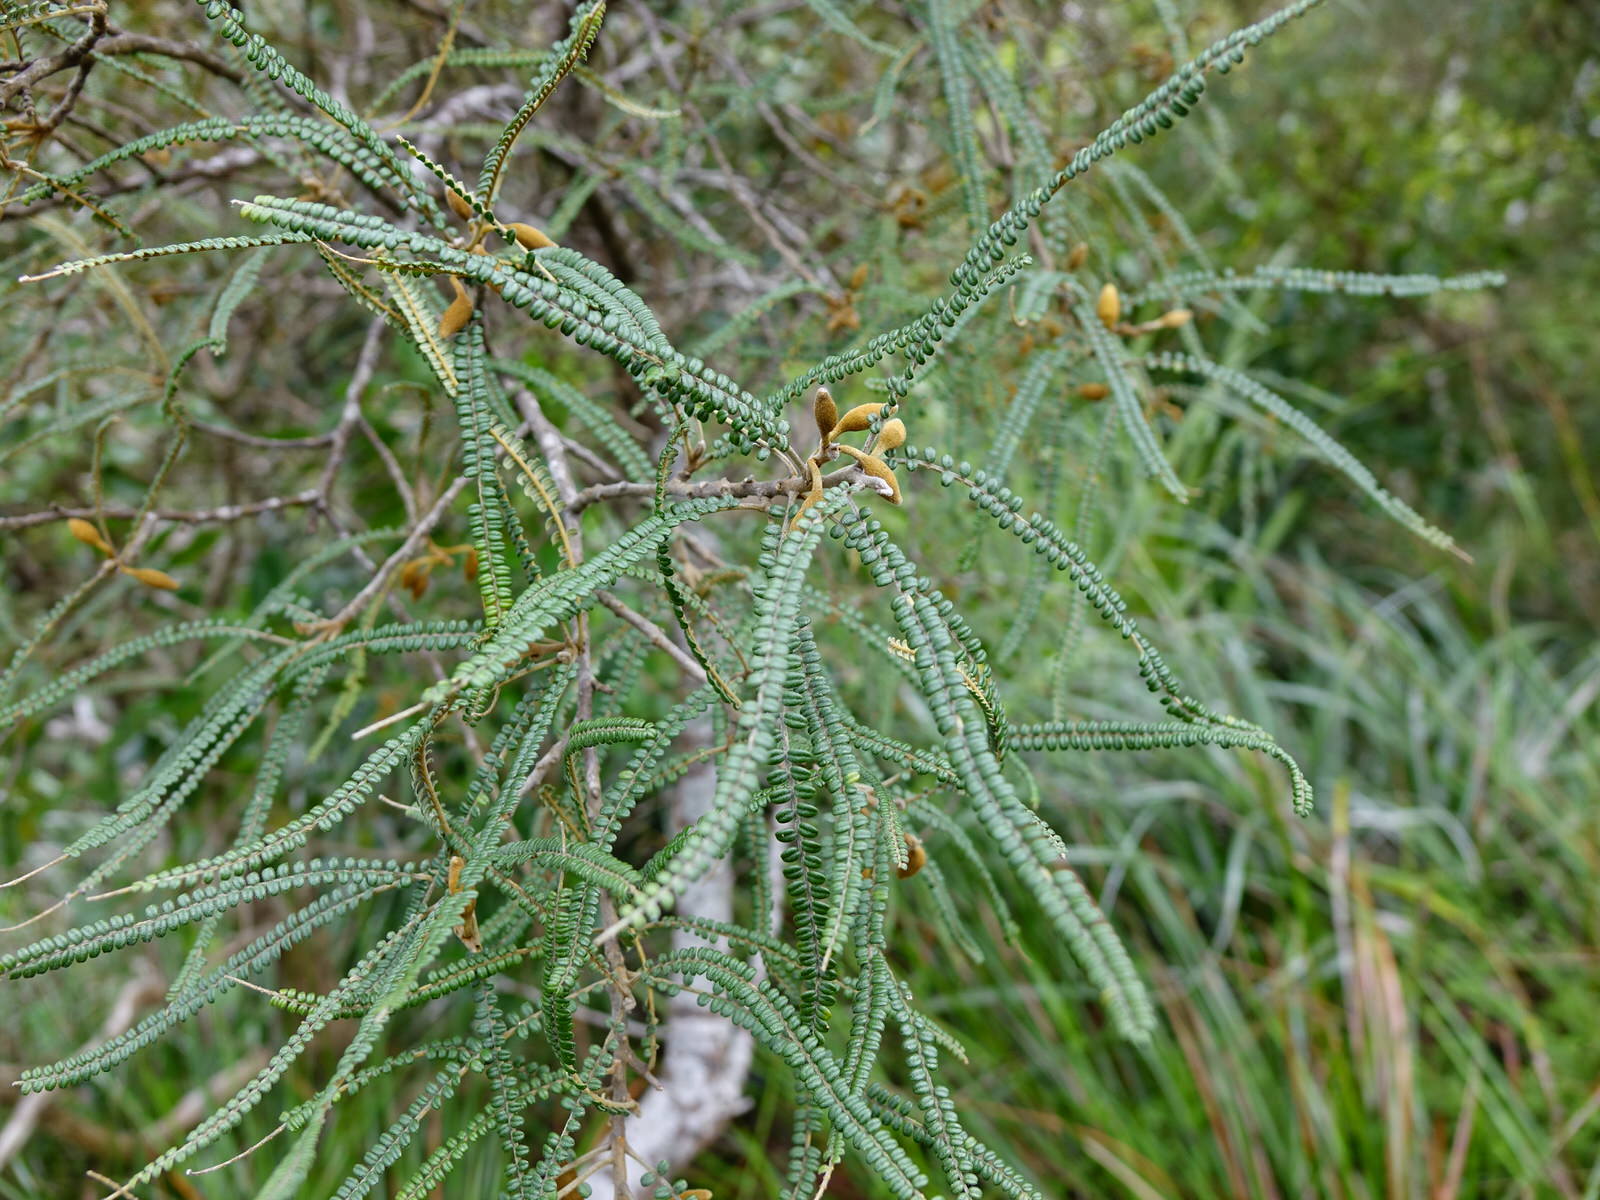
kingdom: Plantae
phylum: Tracheophyta
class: Magnoliopsida
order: Fabales
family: Fabaceae
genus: Sophora
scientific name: Sophora fulvida
